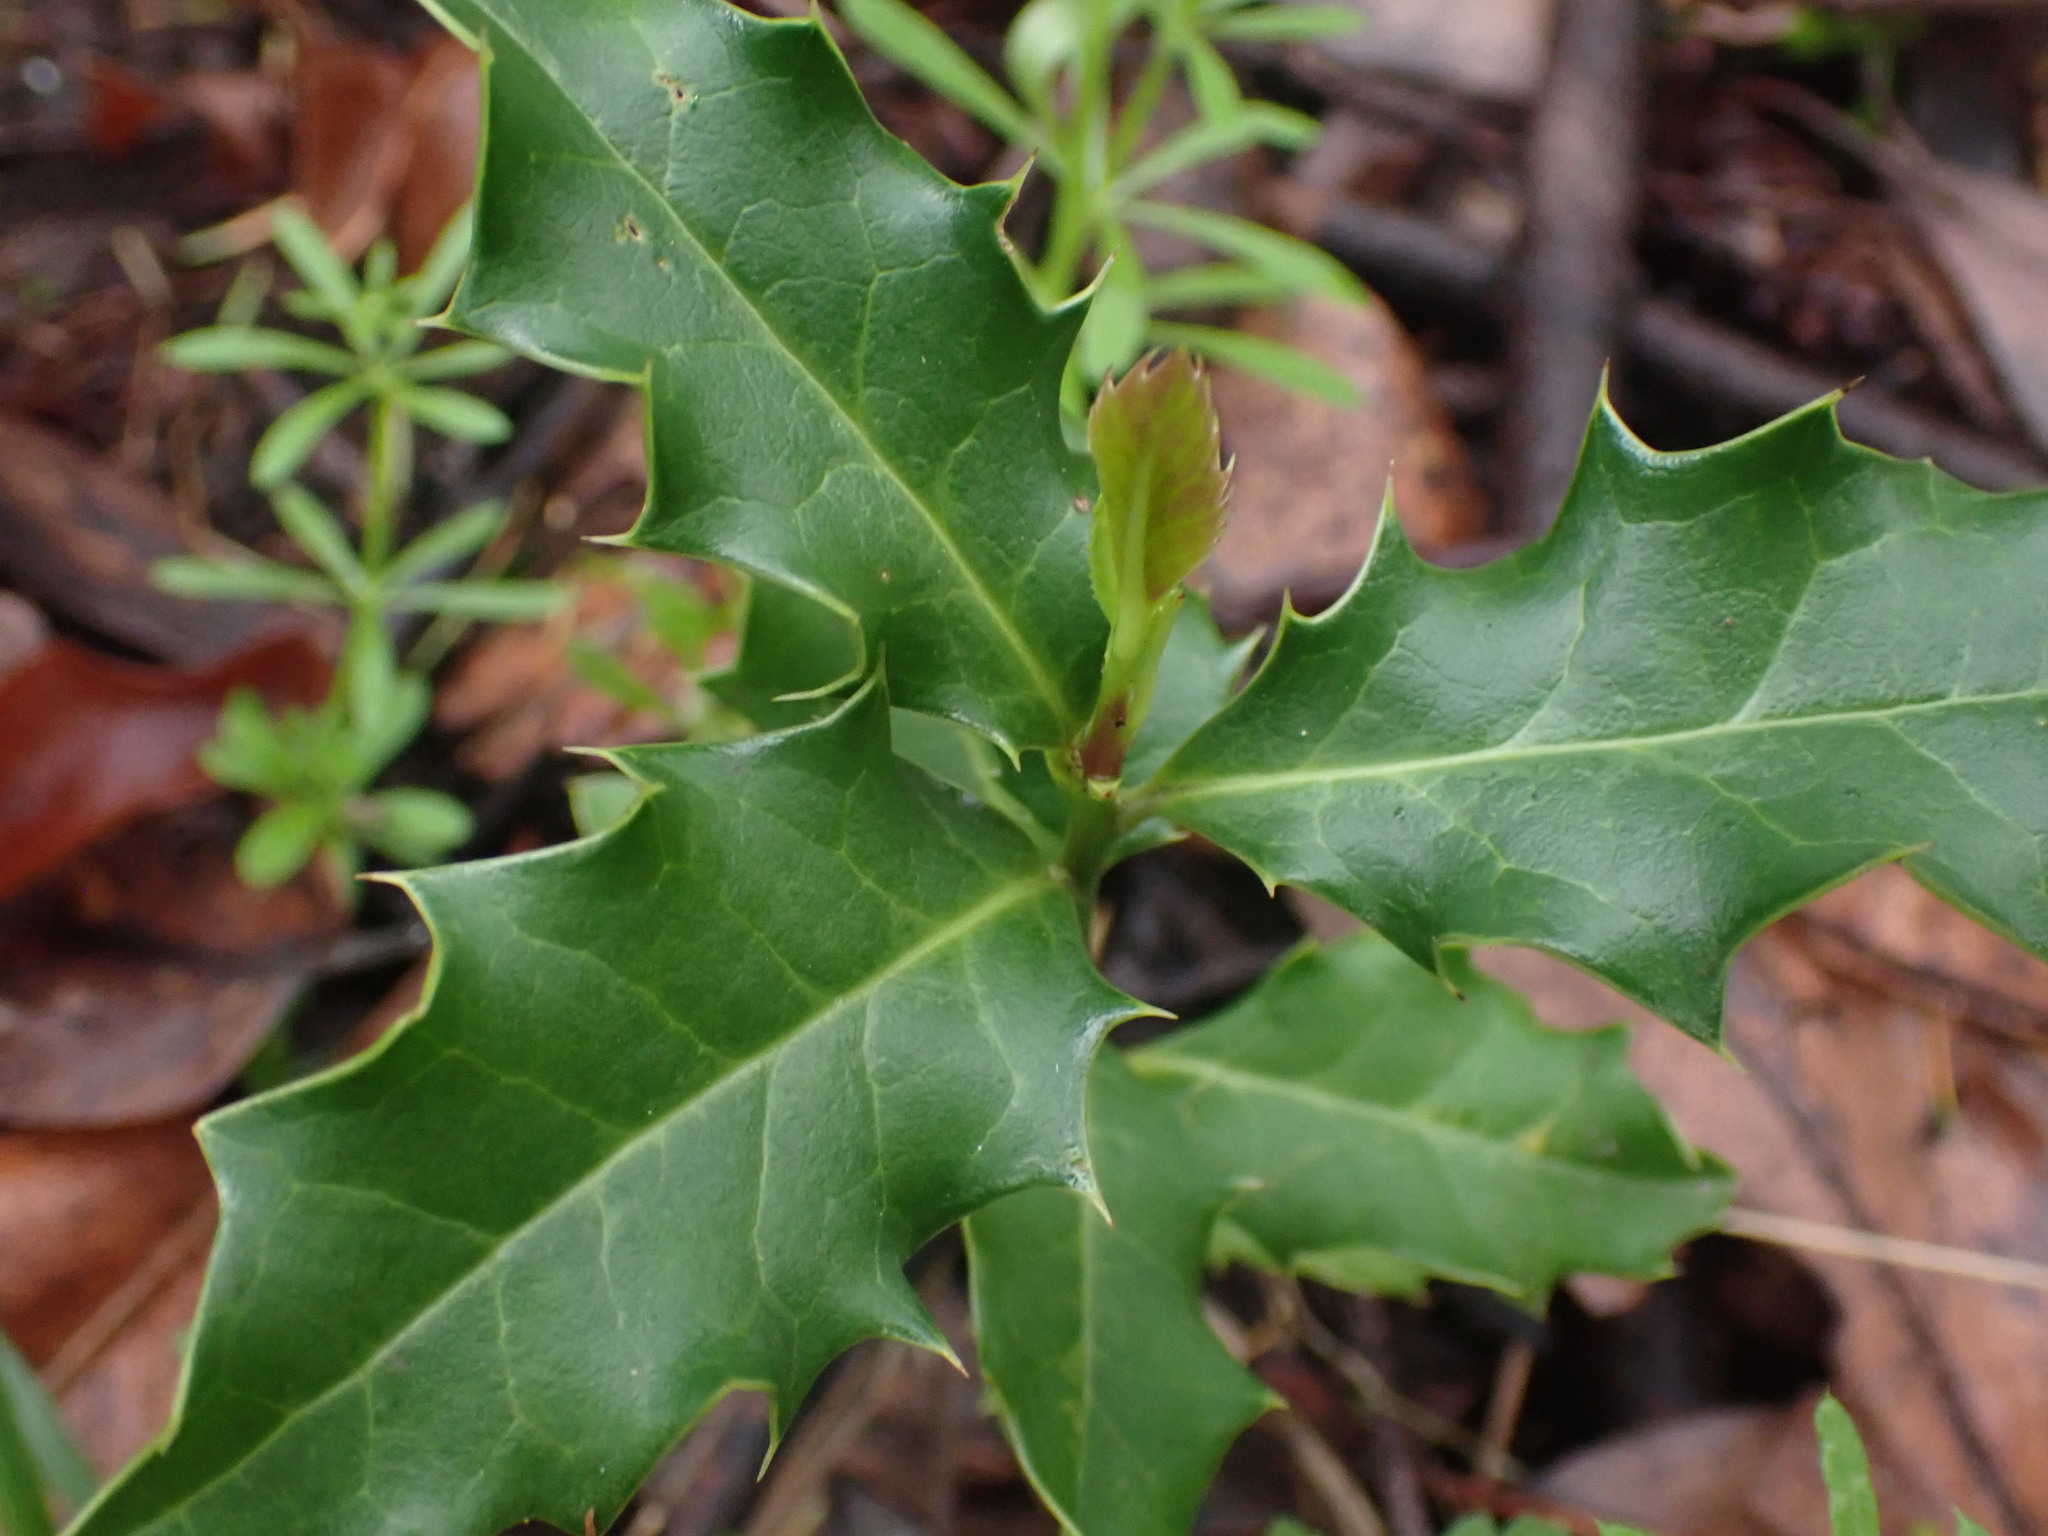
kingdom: Plantae
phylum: Tracheophyta
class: Magnoliopsida
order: Aquifoliales
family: Aquifoliaceae
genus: Ilex
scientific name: Ilex aquifolium
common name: English holly
